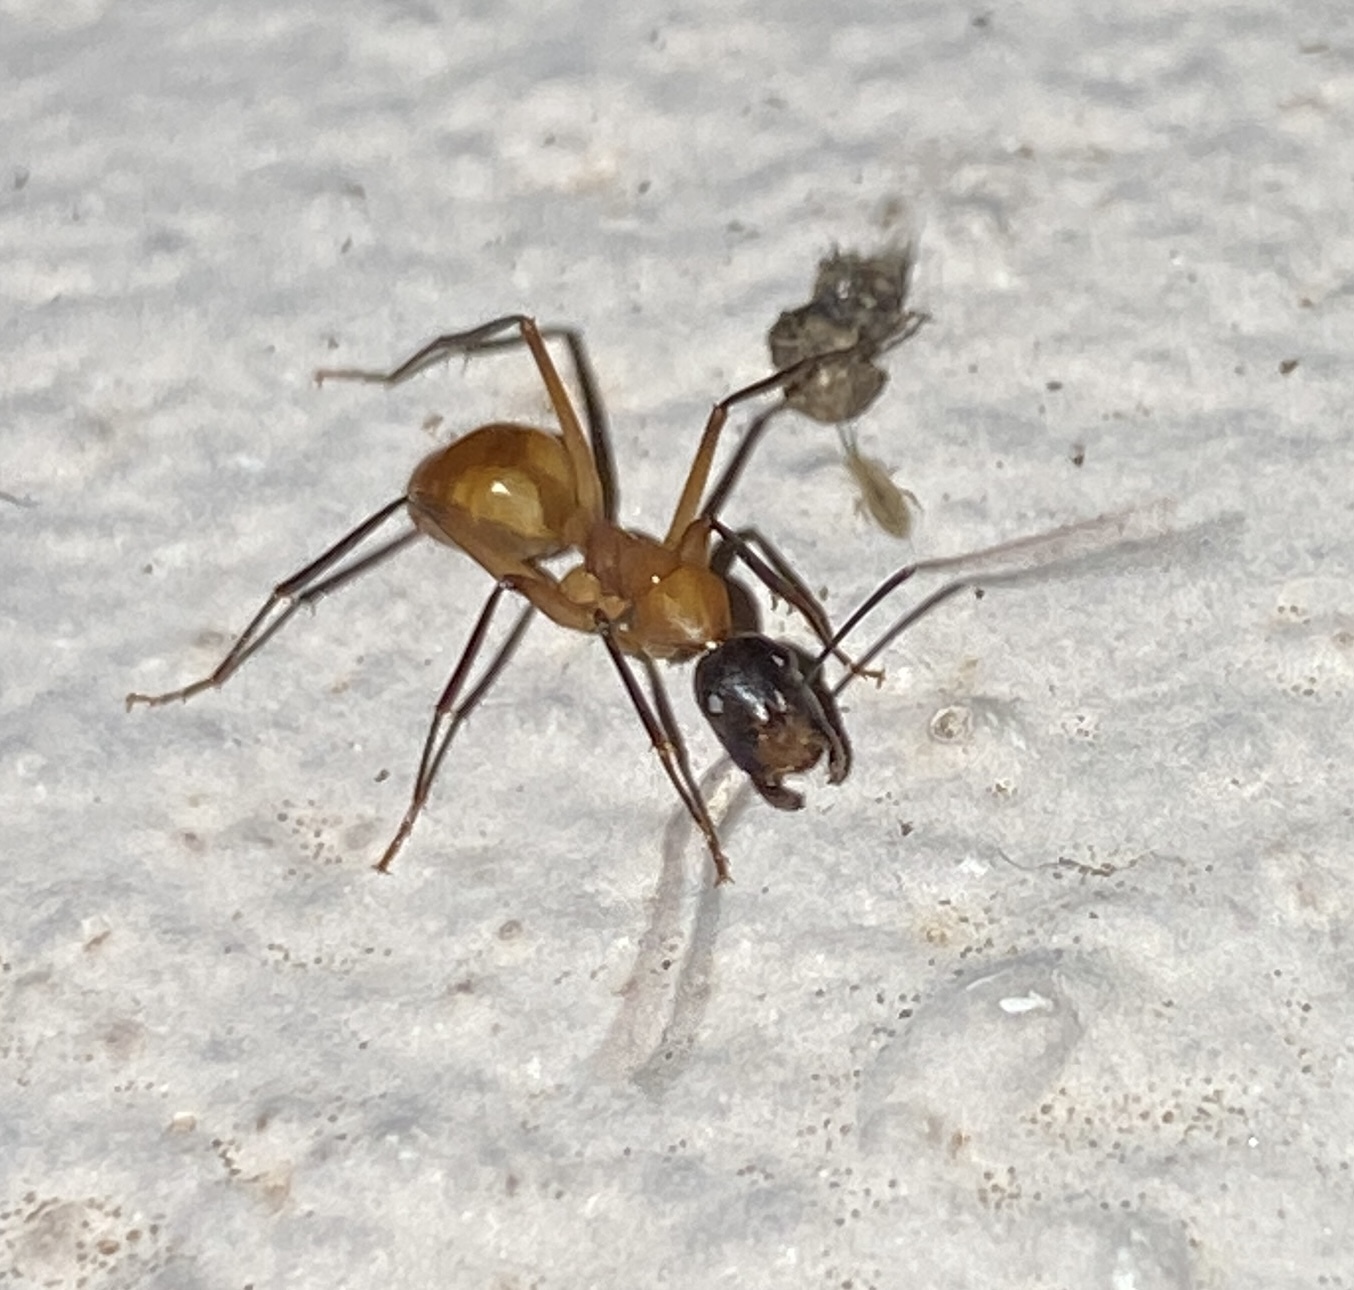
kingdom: Animalia
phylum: Arthropoda
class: Insecta
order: Hymenoptera
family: Formicidae
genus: Camponotus
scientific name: Camponotus ocreatus
